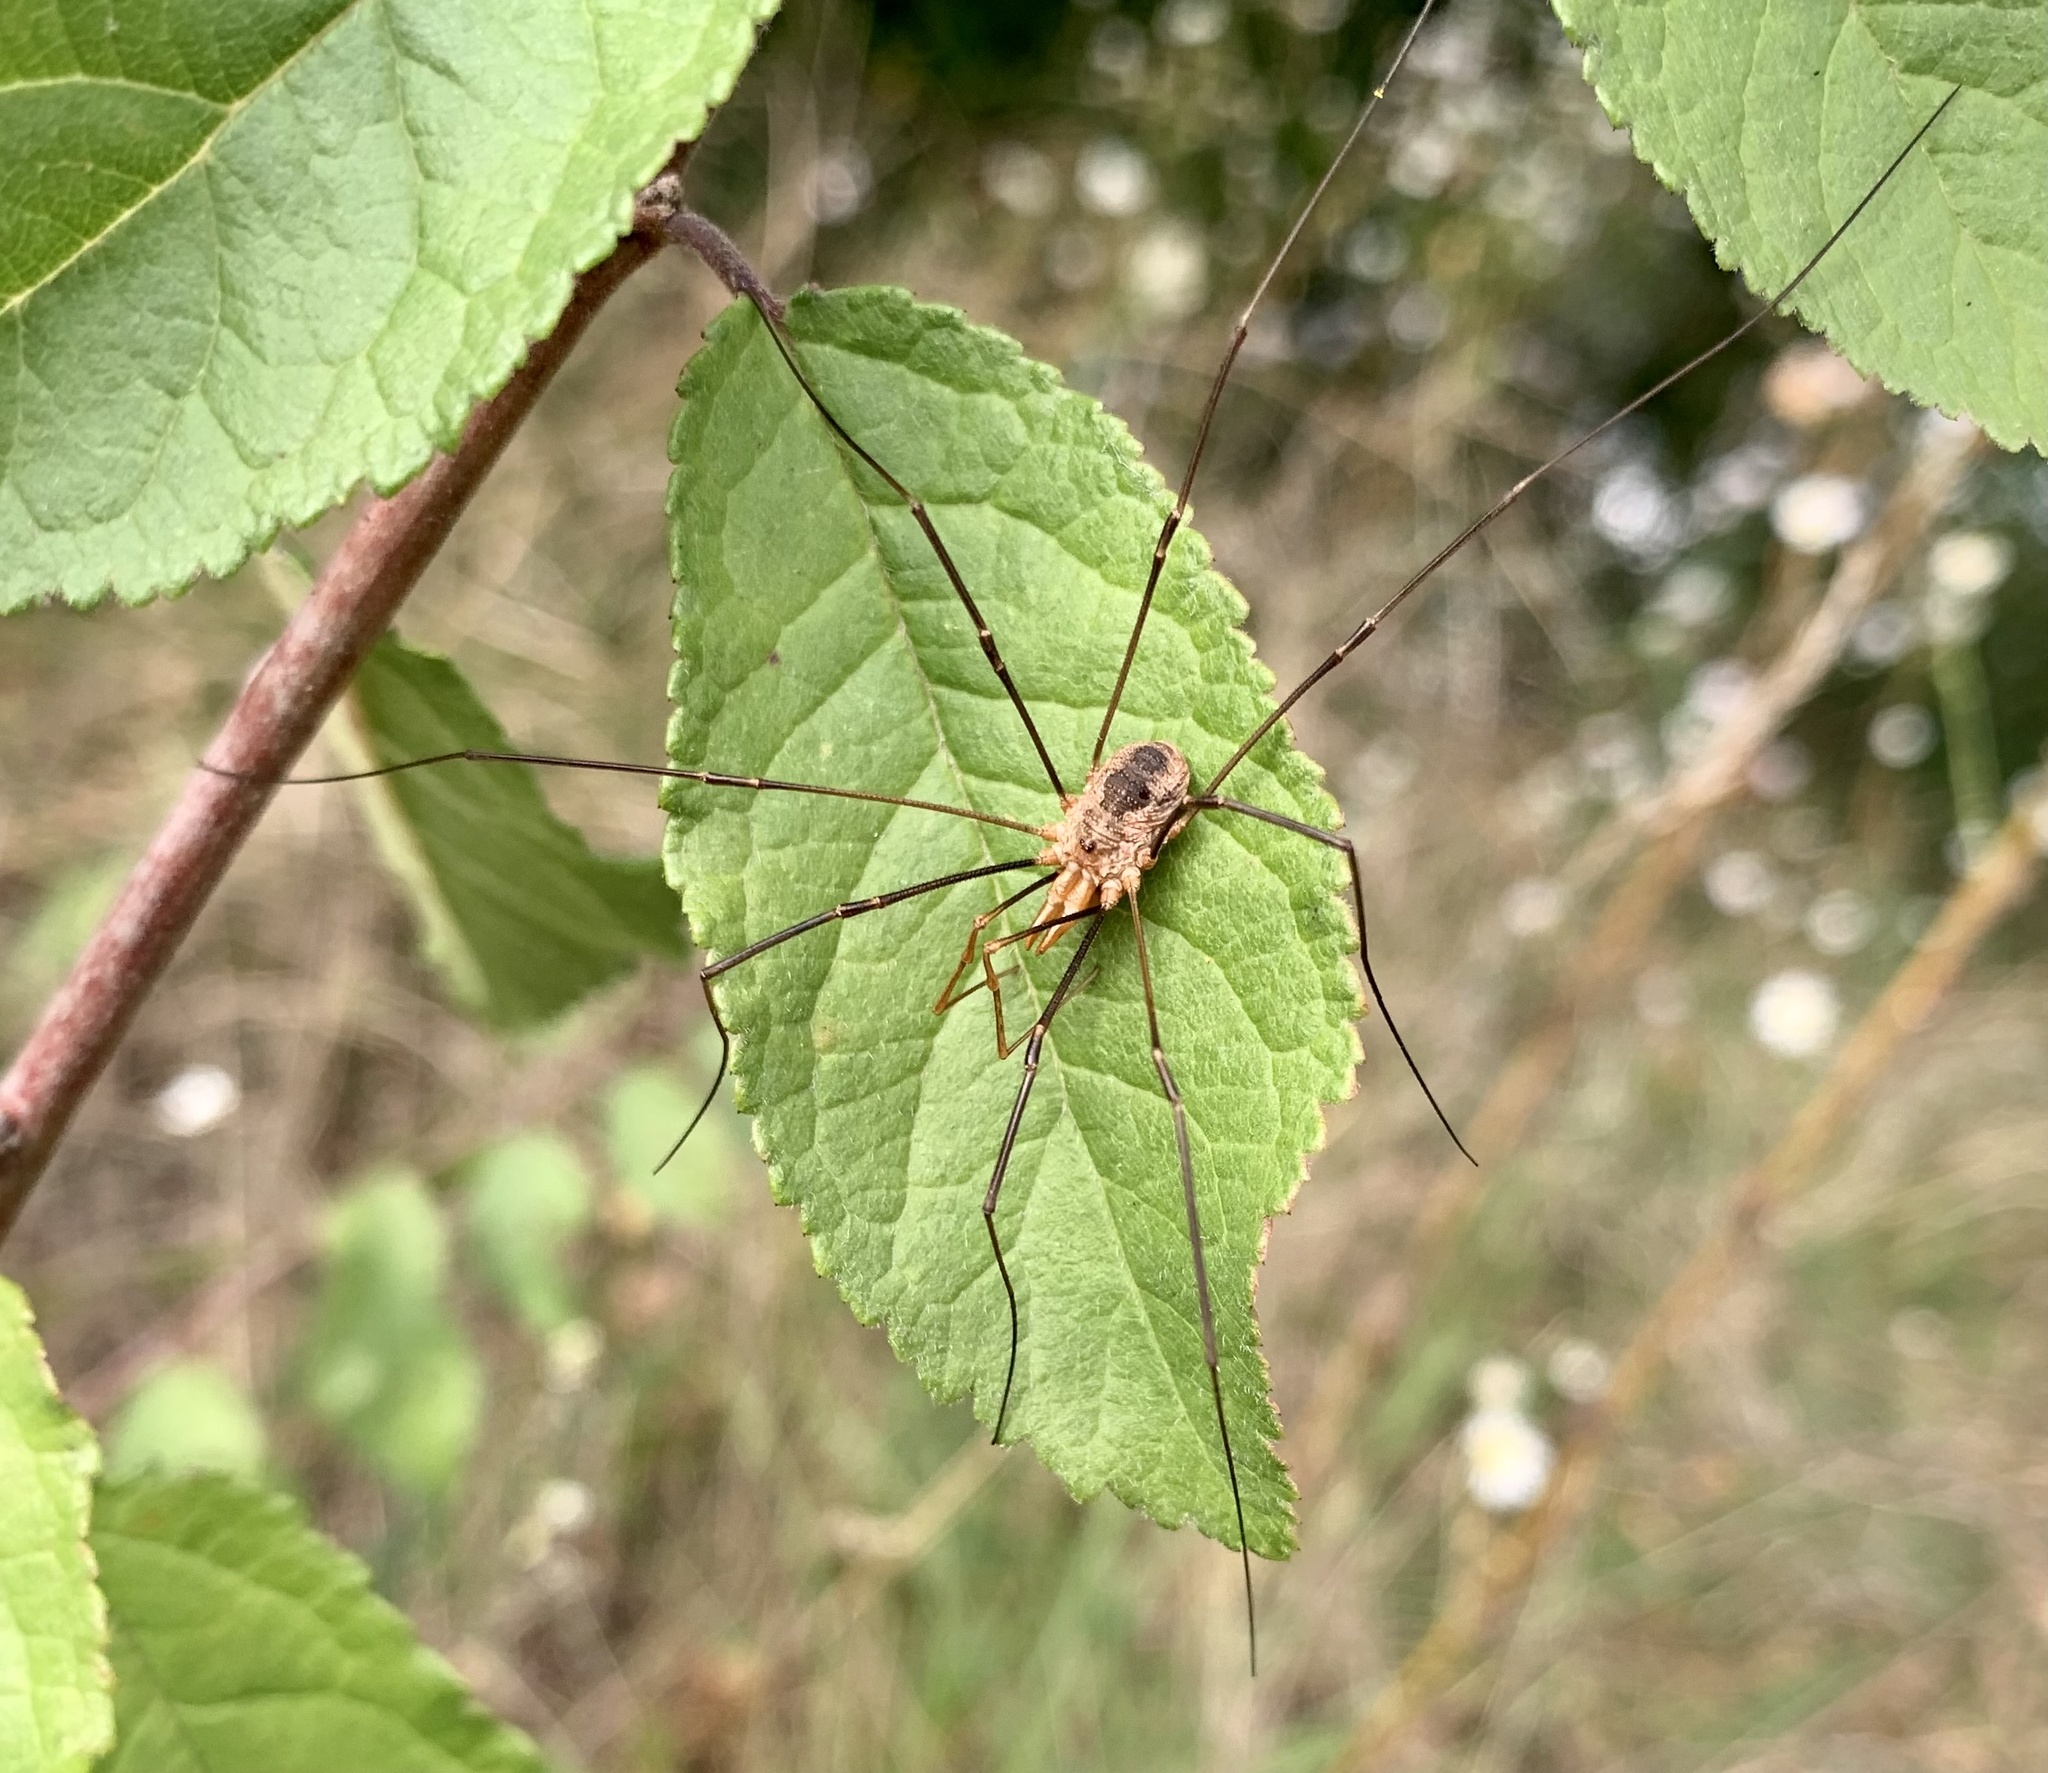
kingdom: Animalia
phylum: Arthropoda
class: Arachnida
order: Opiliones
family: Phalangiidae
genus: Phalangium
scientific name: Phalangium opilio
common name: Daddy longleg
